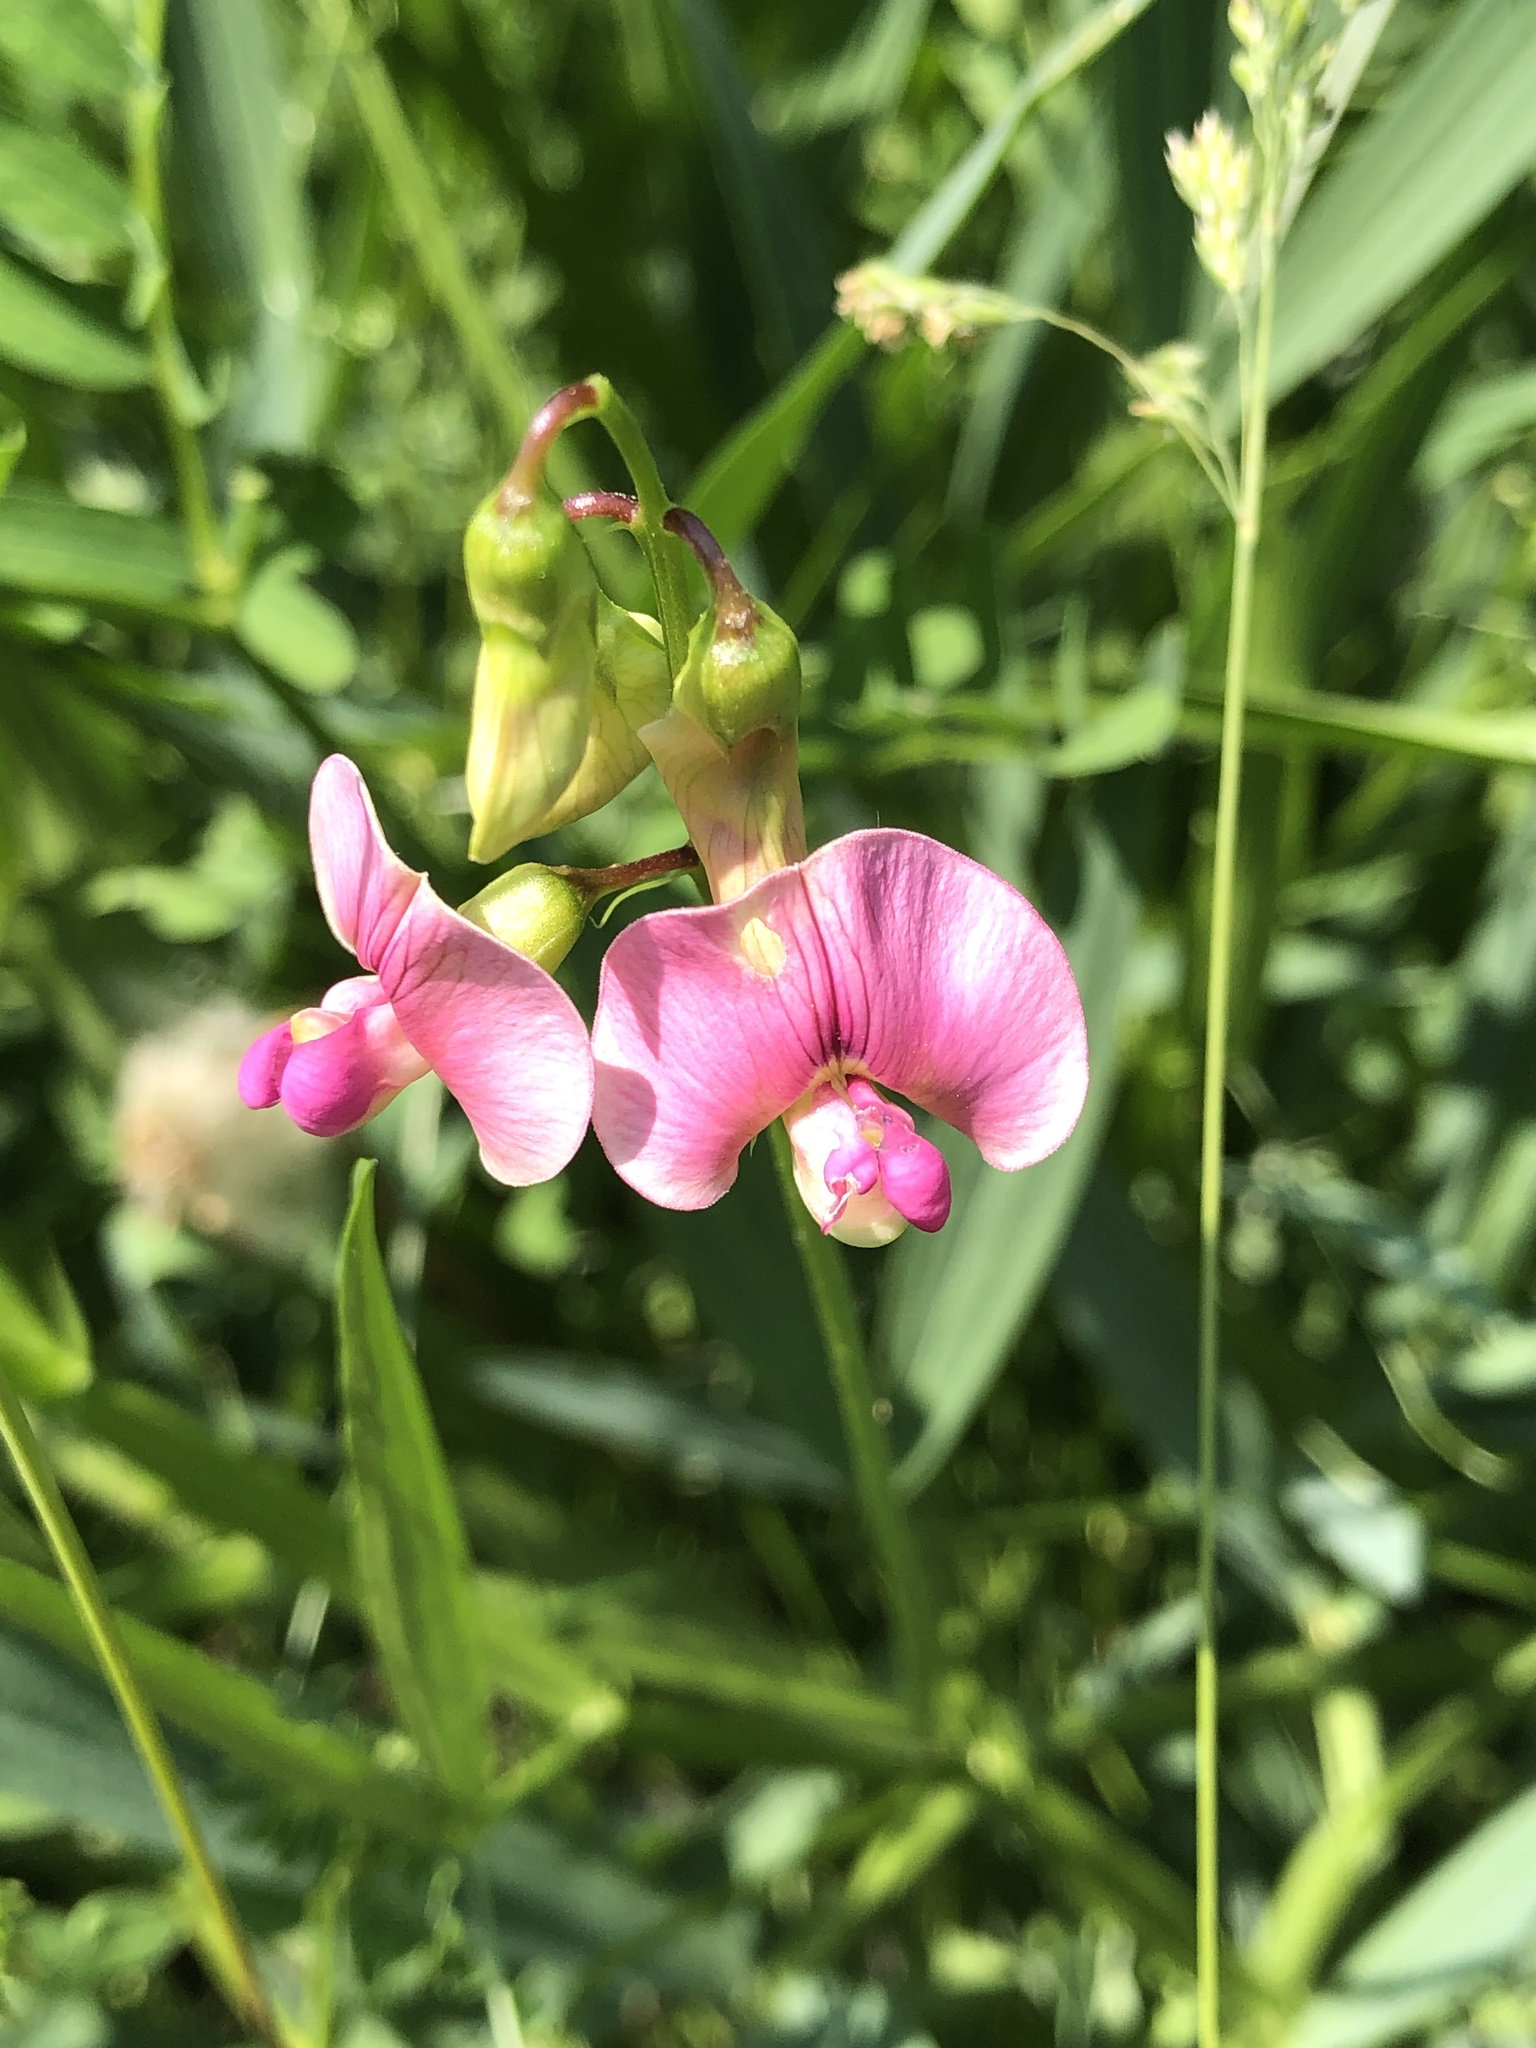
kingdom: Plantae
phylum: Tracheophyta
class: Magnoliopsida
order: Fabales
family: Fabaceae
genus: Lathyrus
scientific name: Lathyrus sylvestris
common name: Flat pea
